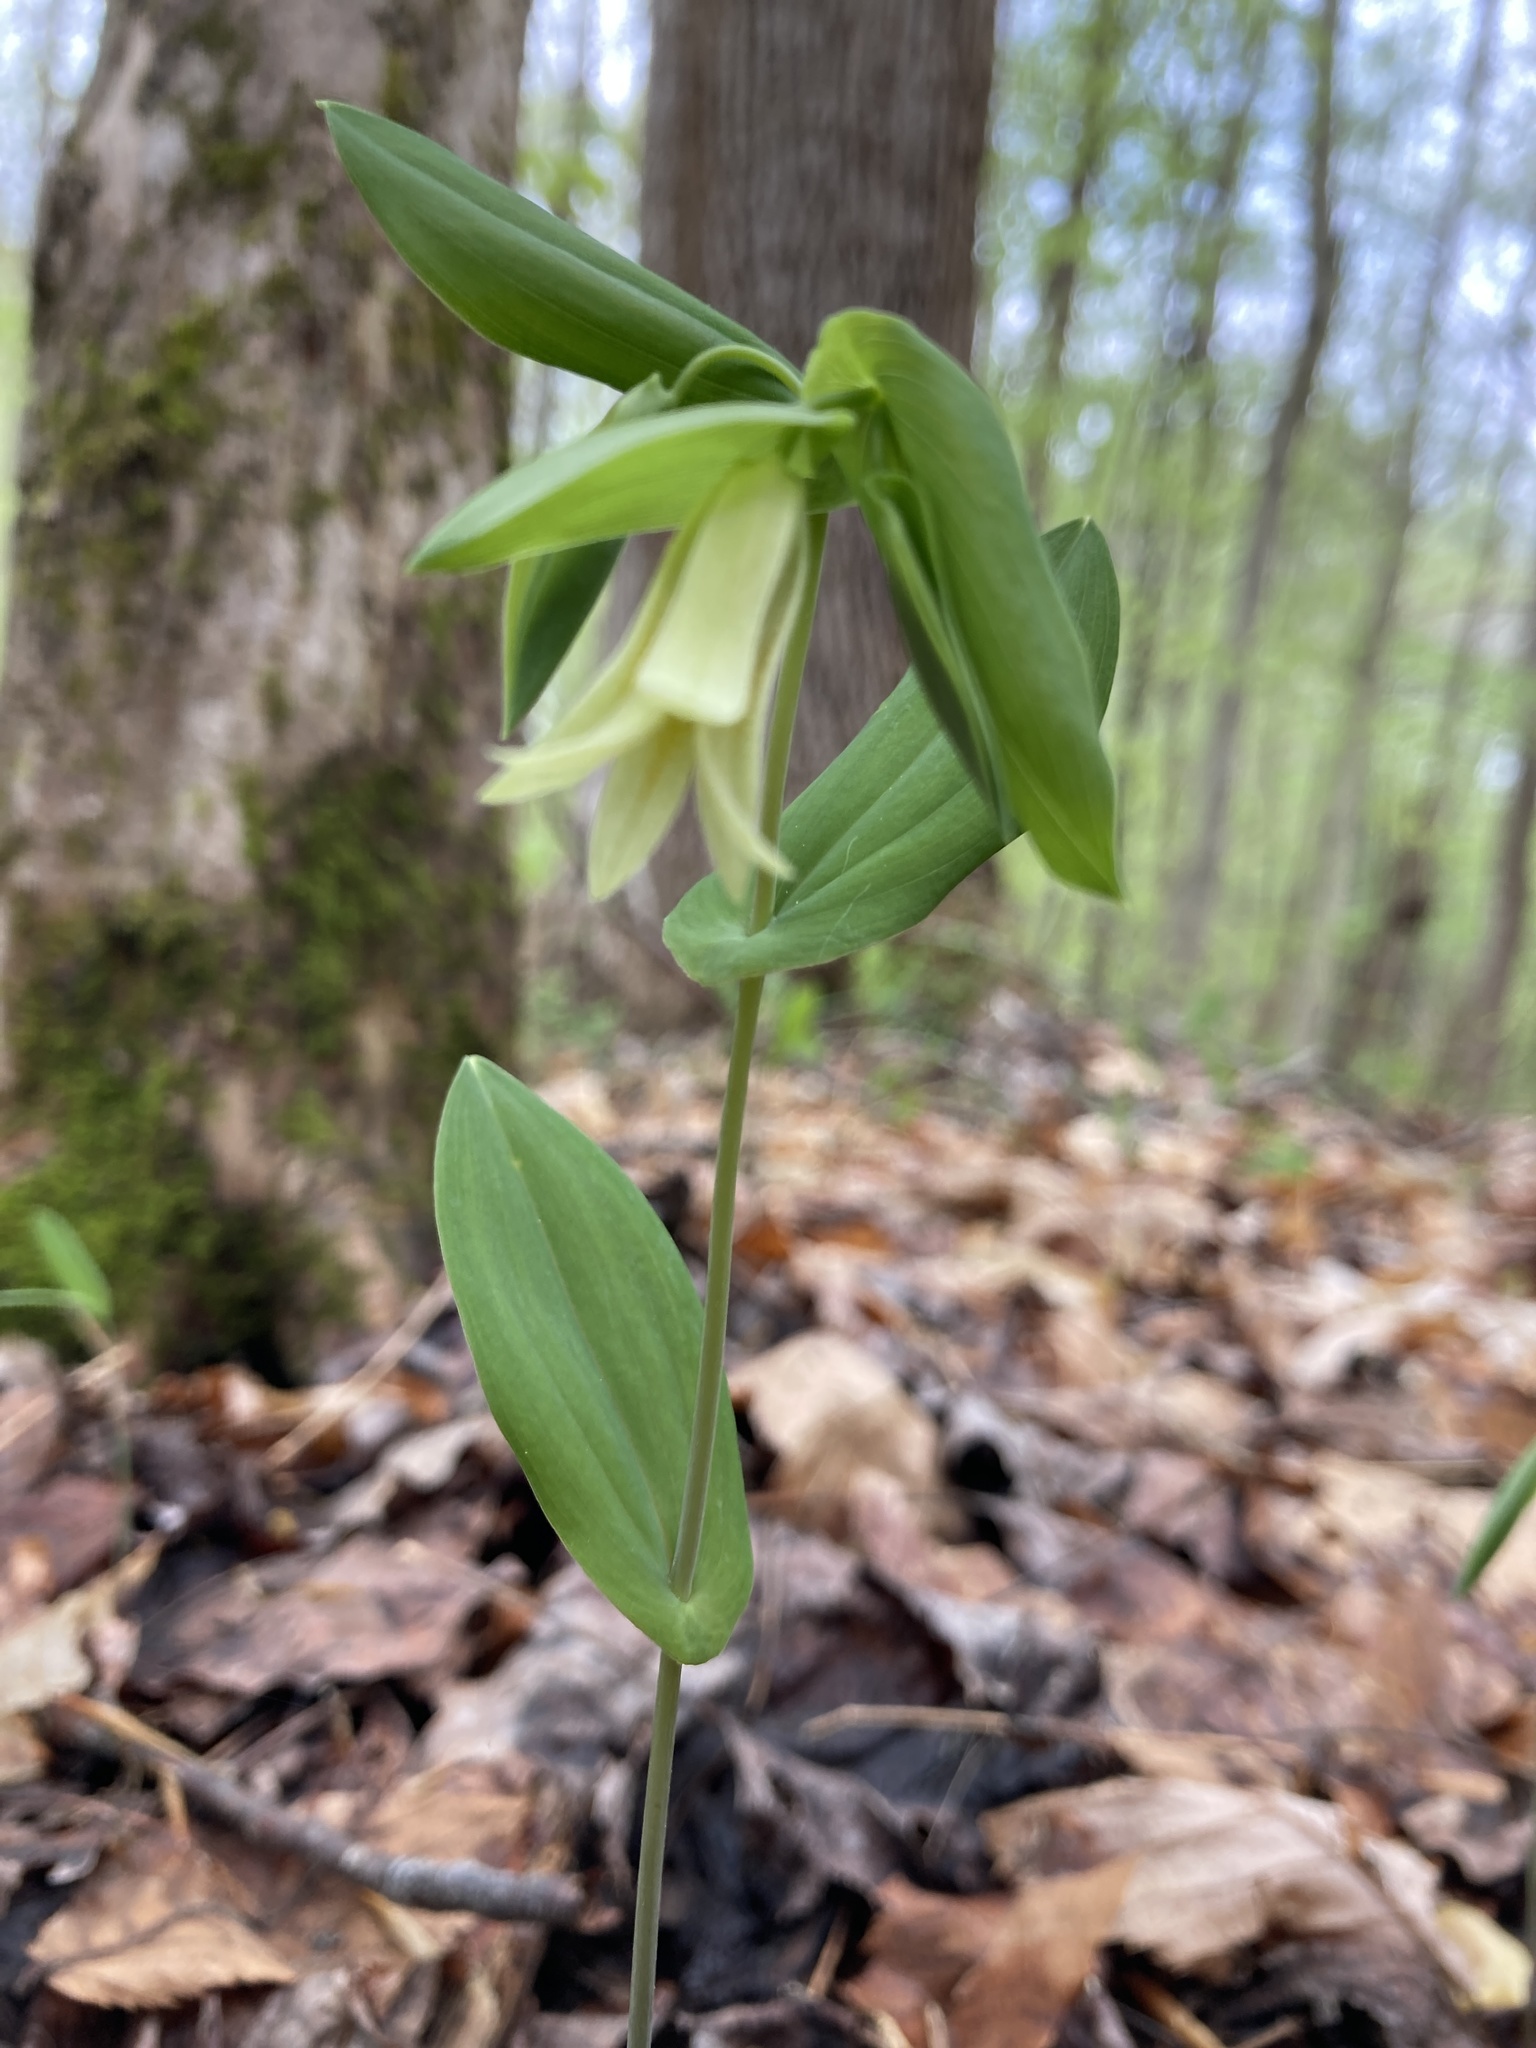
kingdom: Plantae
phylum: Tracheophyta
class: Liliopsida
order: Liliales
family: Colchicaceae
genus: Uvularia
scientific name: Uvularia perfoliata
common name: Perfoliate bellwort
